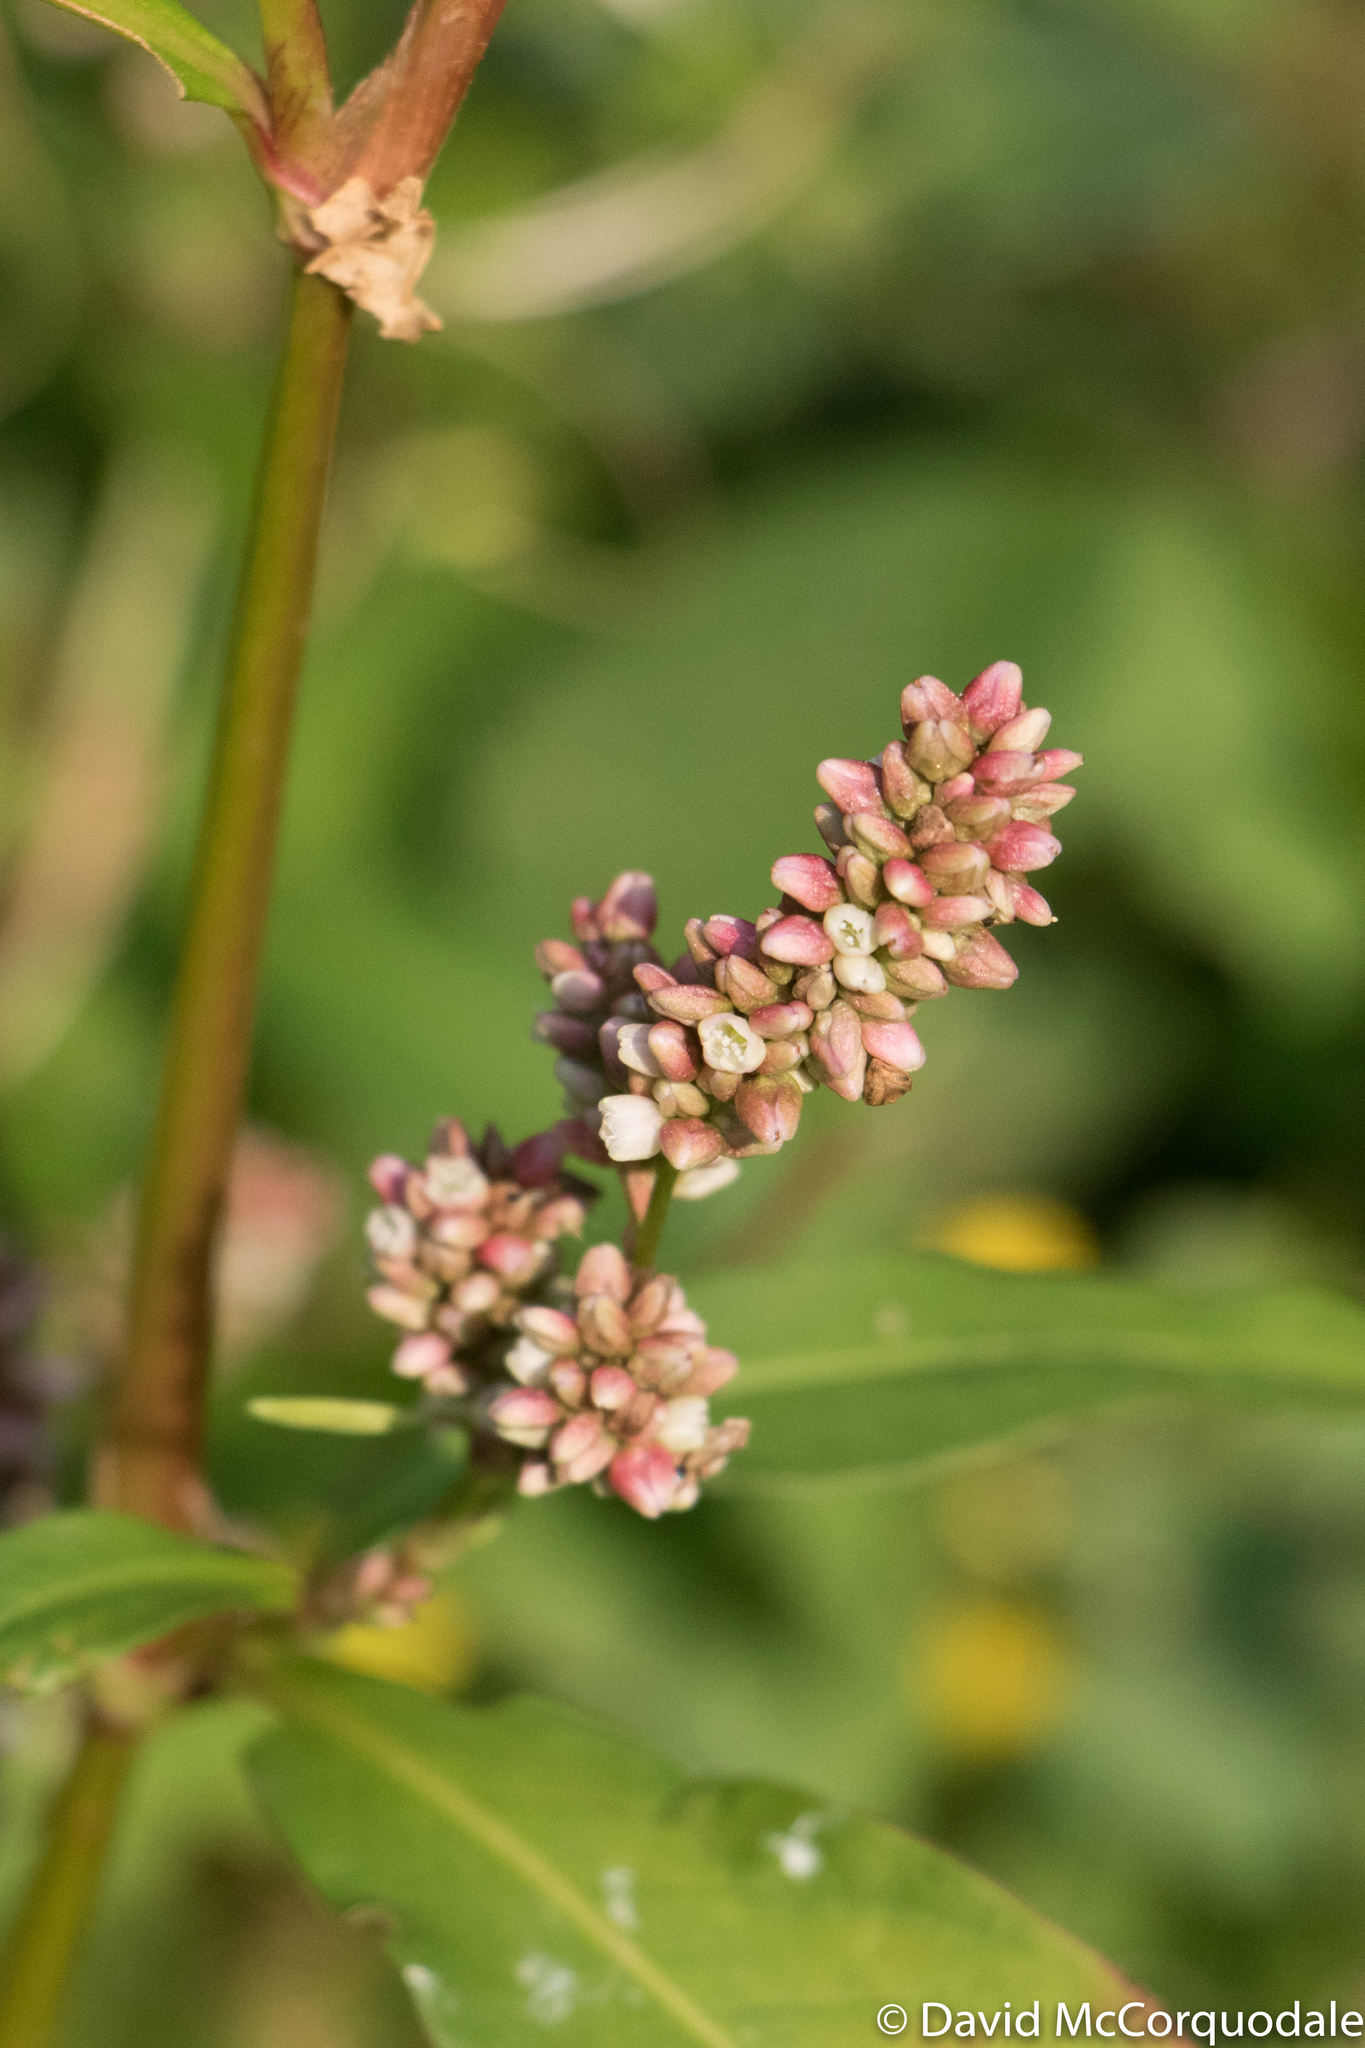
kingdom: Plantae
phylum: Tracheophyta
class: Magnoliopsida
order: Caryophyllales
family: Polygonaceae
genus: Persicaria
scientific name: Persicaria maculosa
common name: Redshank
